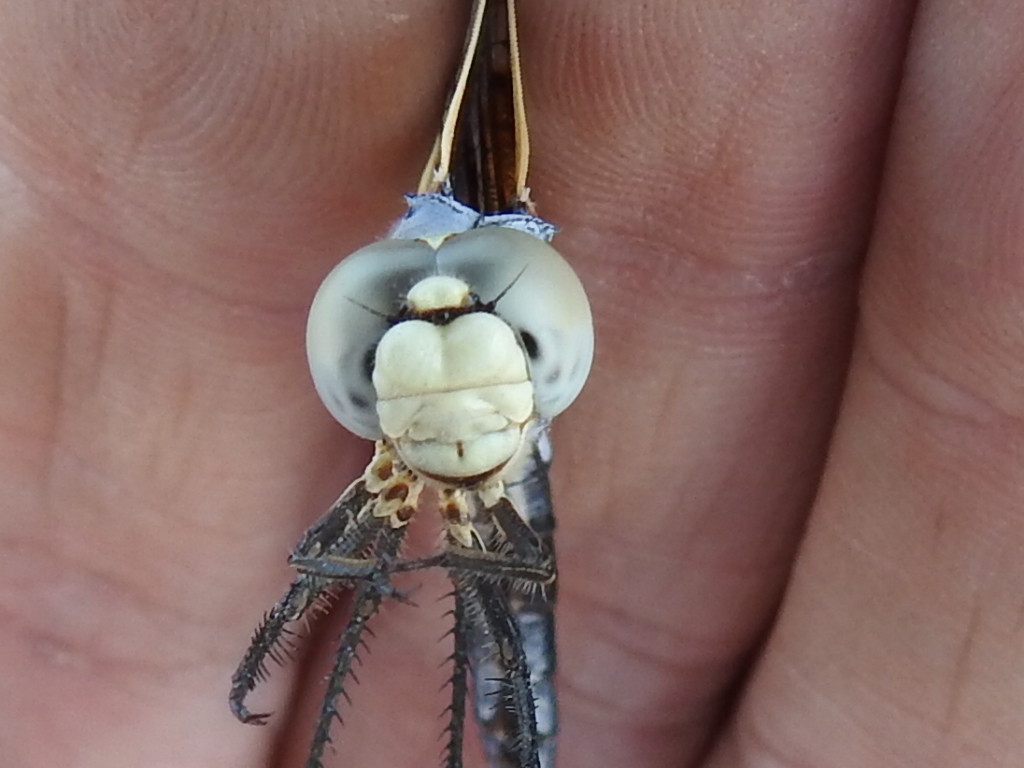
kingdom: Animalia
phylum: Arthropoda
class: Insecta
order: Odonata
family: Libellulidae
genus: Libellula
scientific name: Libellula composita
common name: Bleached skimmer
